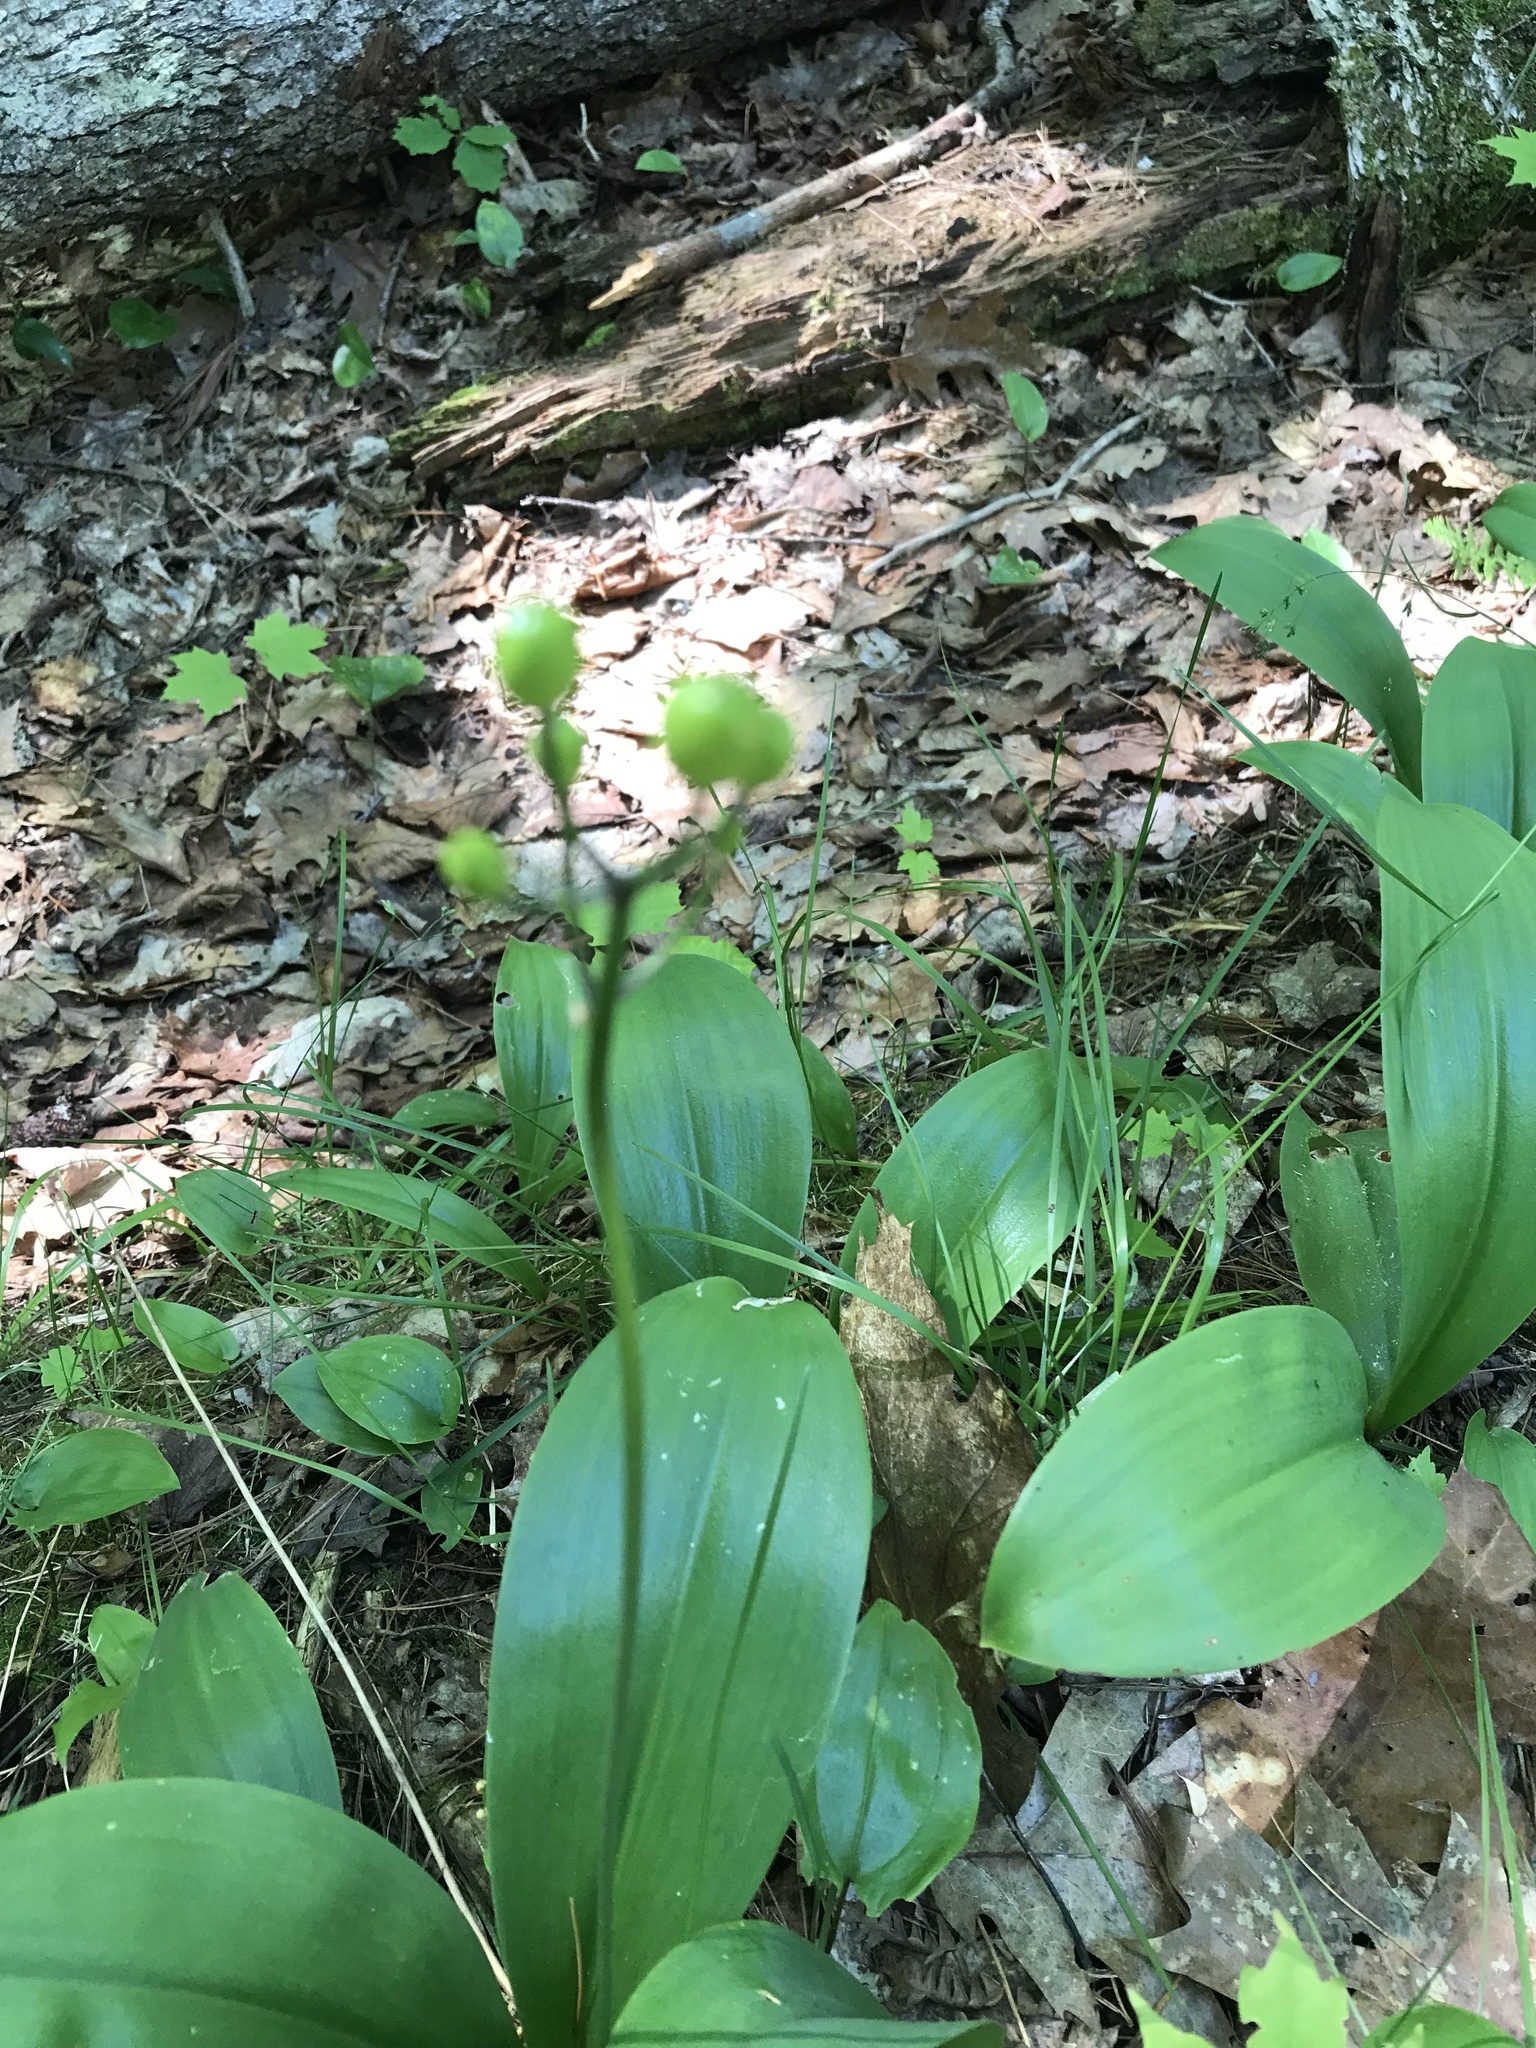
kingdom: Plantae
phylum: Tracheophyta
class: Liliopsida
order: Liliales
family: Liliaceae
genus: Clintonia
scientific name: Clintonia borealis
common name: Yellow clintonia
